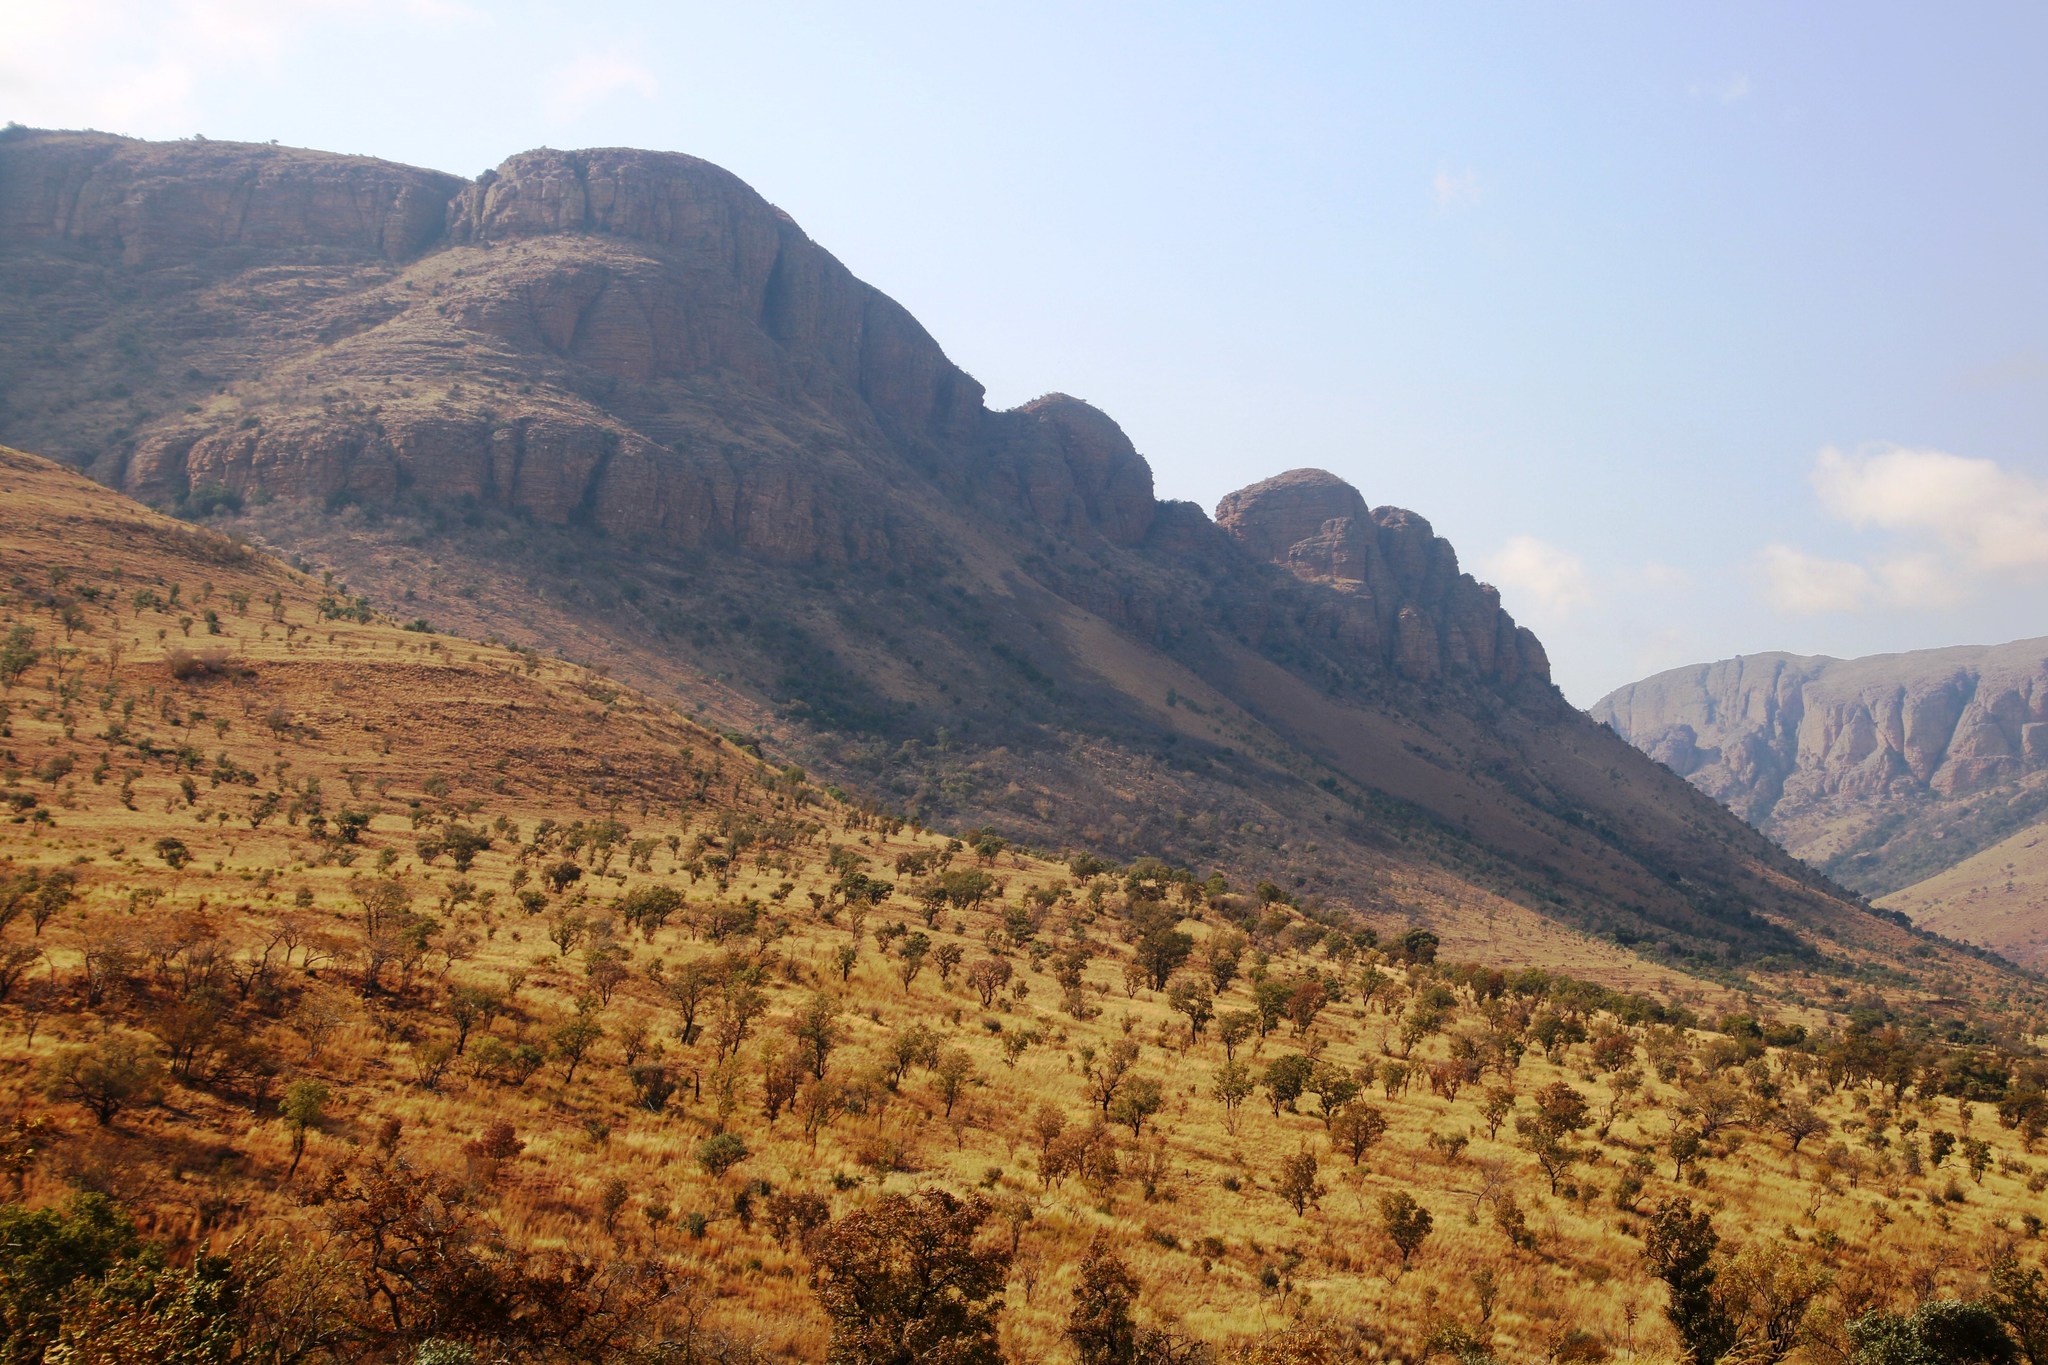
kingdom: Plantae
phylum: Tracheophyta
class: Magnoliopsida
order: Proteales
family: Proteaceae
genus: Faurea
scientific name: Faurea saligna
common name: African bean
